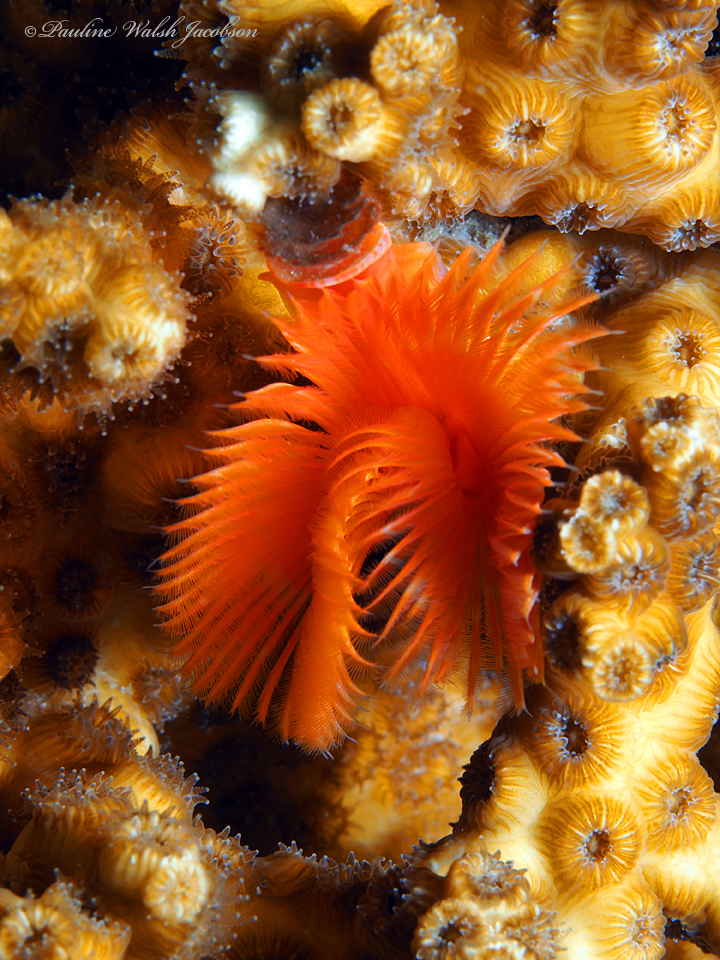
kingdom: Animalia
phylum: Annelida
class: Polychaeta
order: Sabellida
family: Serpulidae
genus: Pomatostegus
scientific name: Pomatostegus stellatus
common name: Star tubeworm
